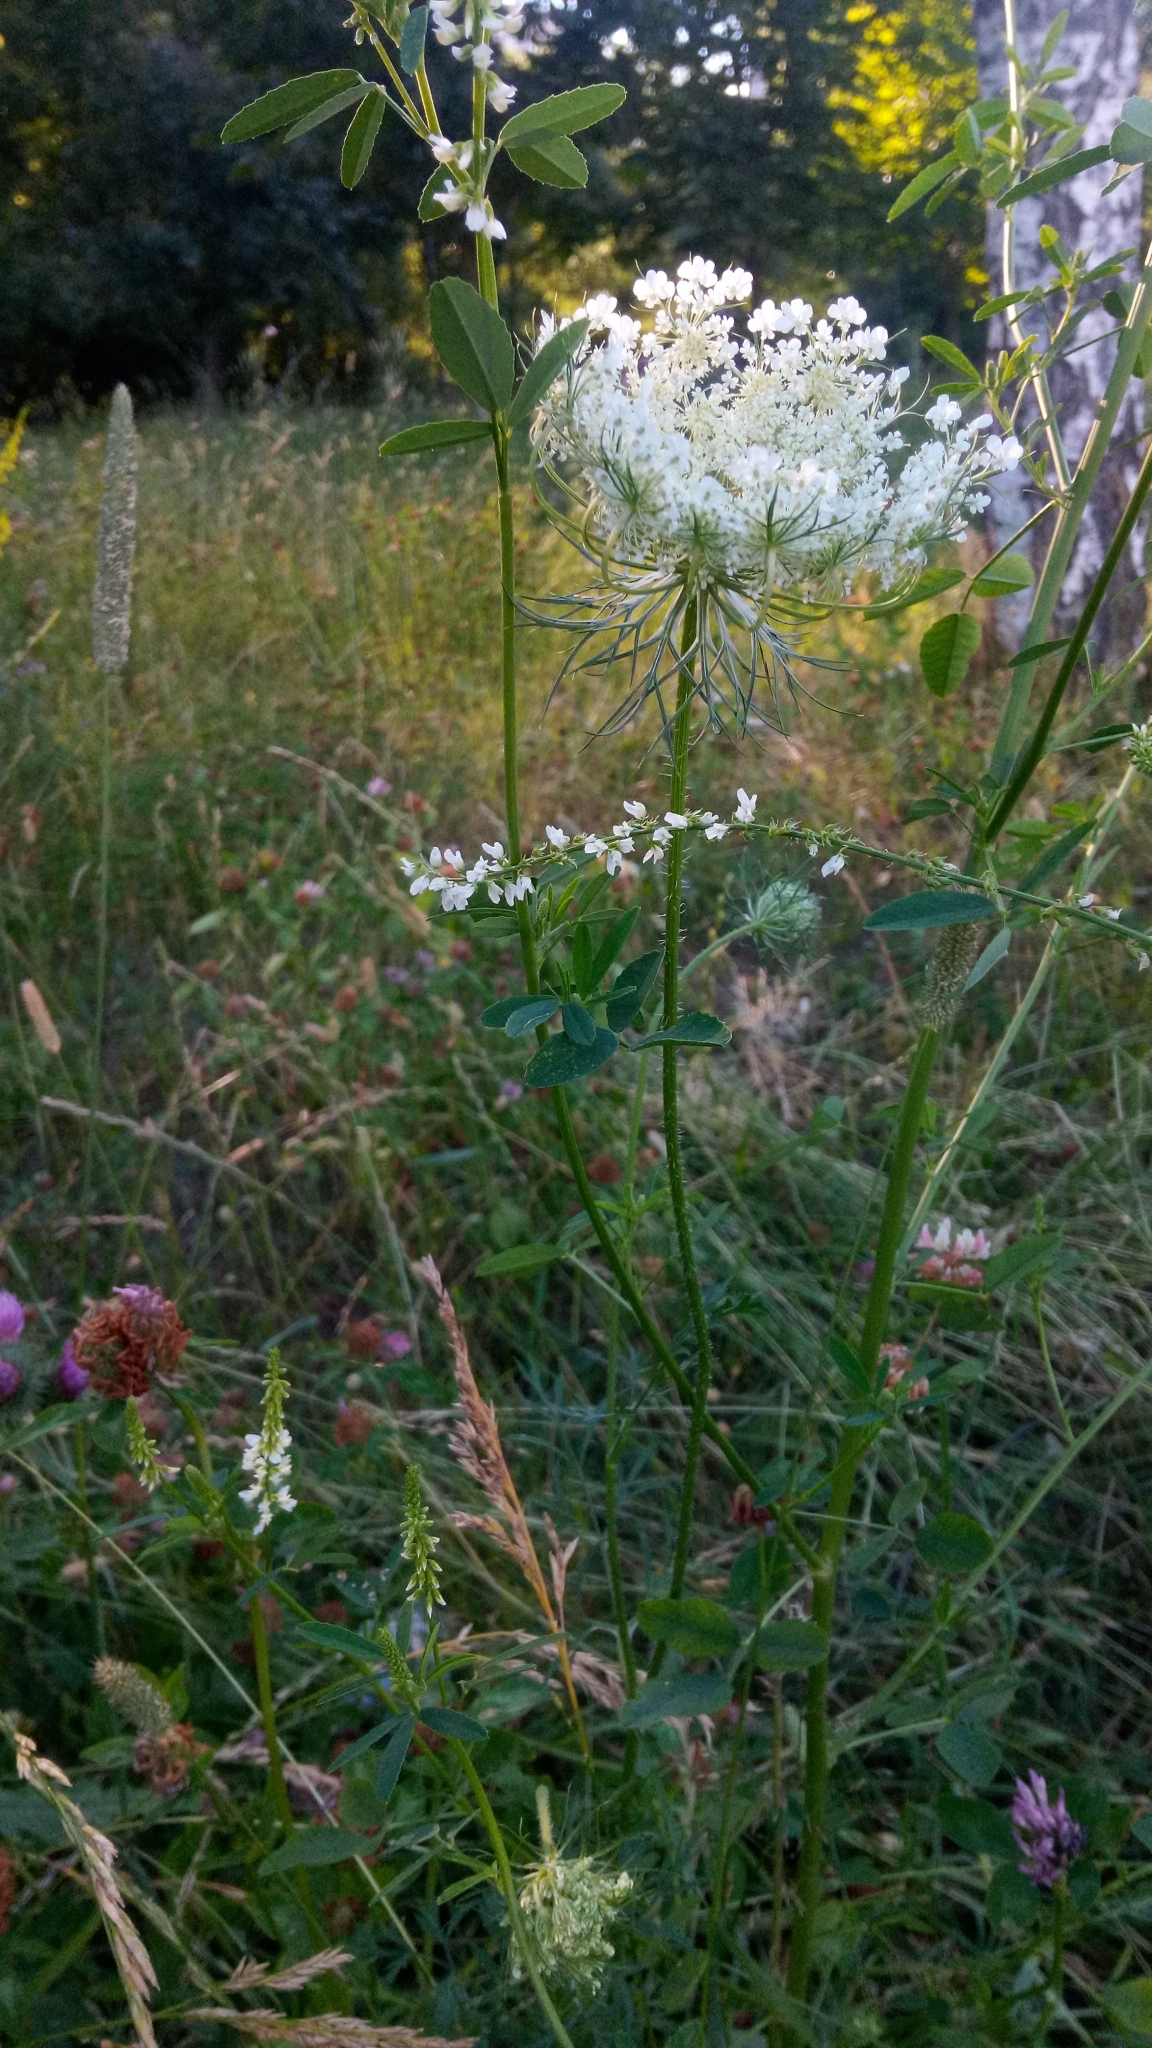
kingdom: Plantae
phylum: Tracheophyta
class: Magnoliopsida
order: Apiales
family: Apiaceae
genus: Daucus
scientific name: Daucus carota
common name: Wild carrot
